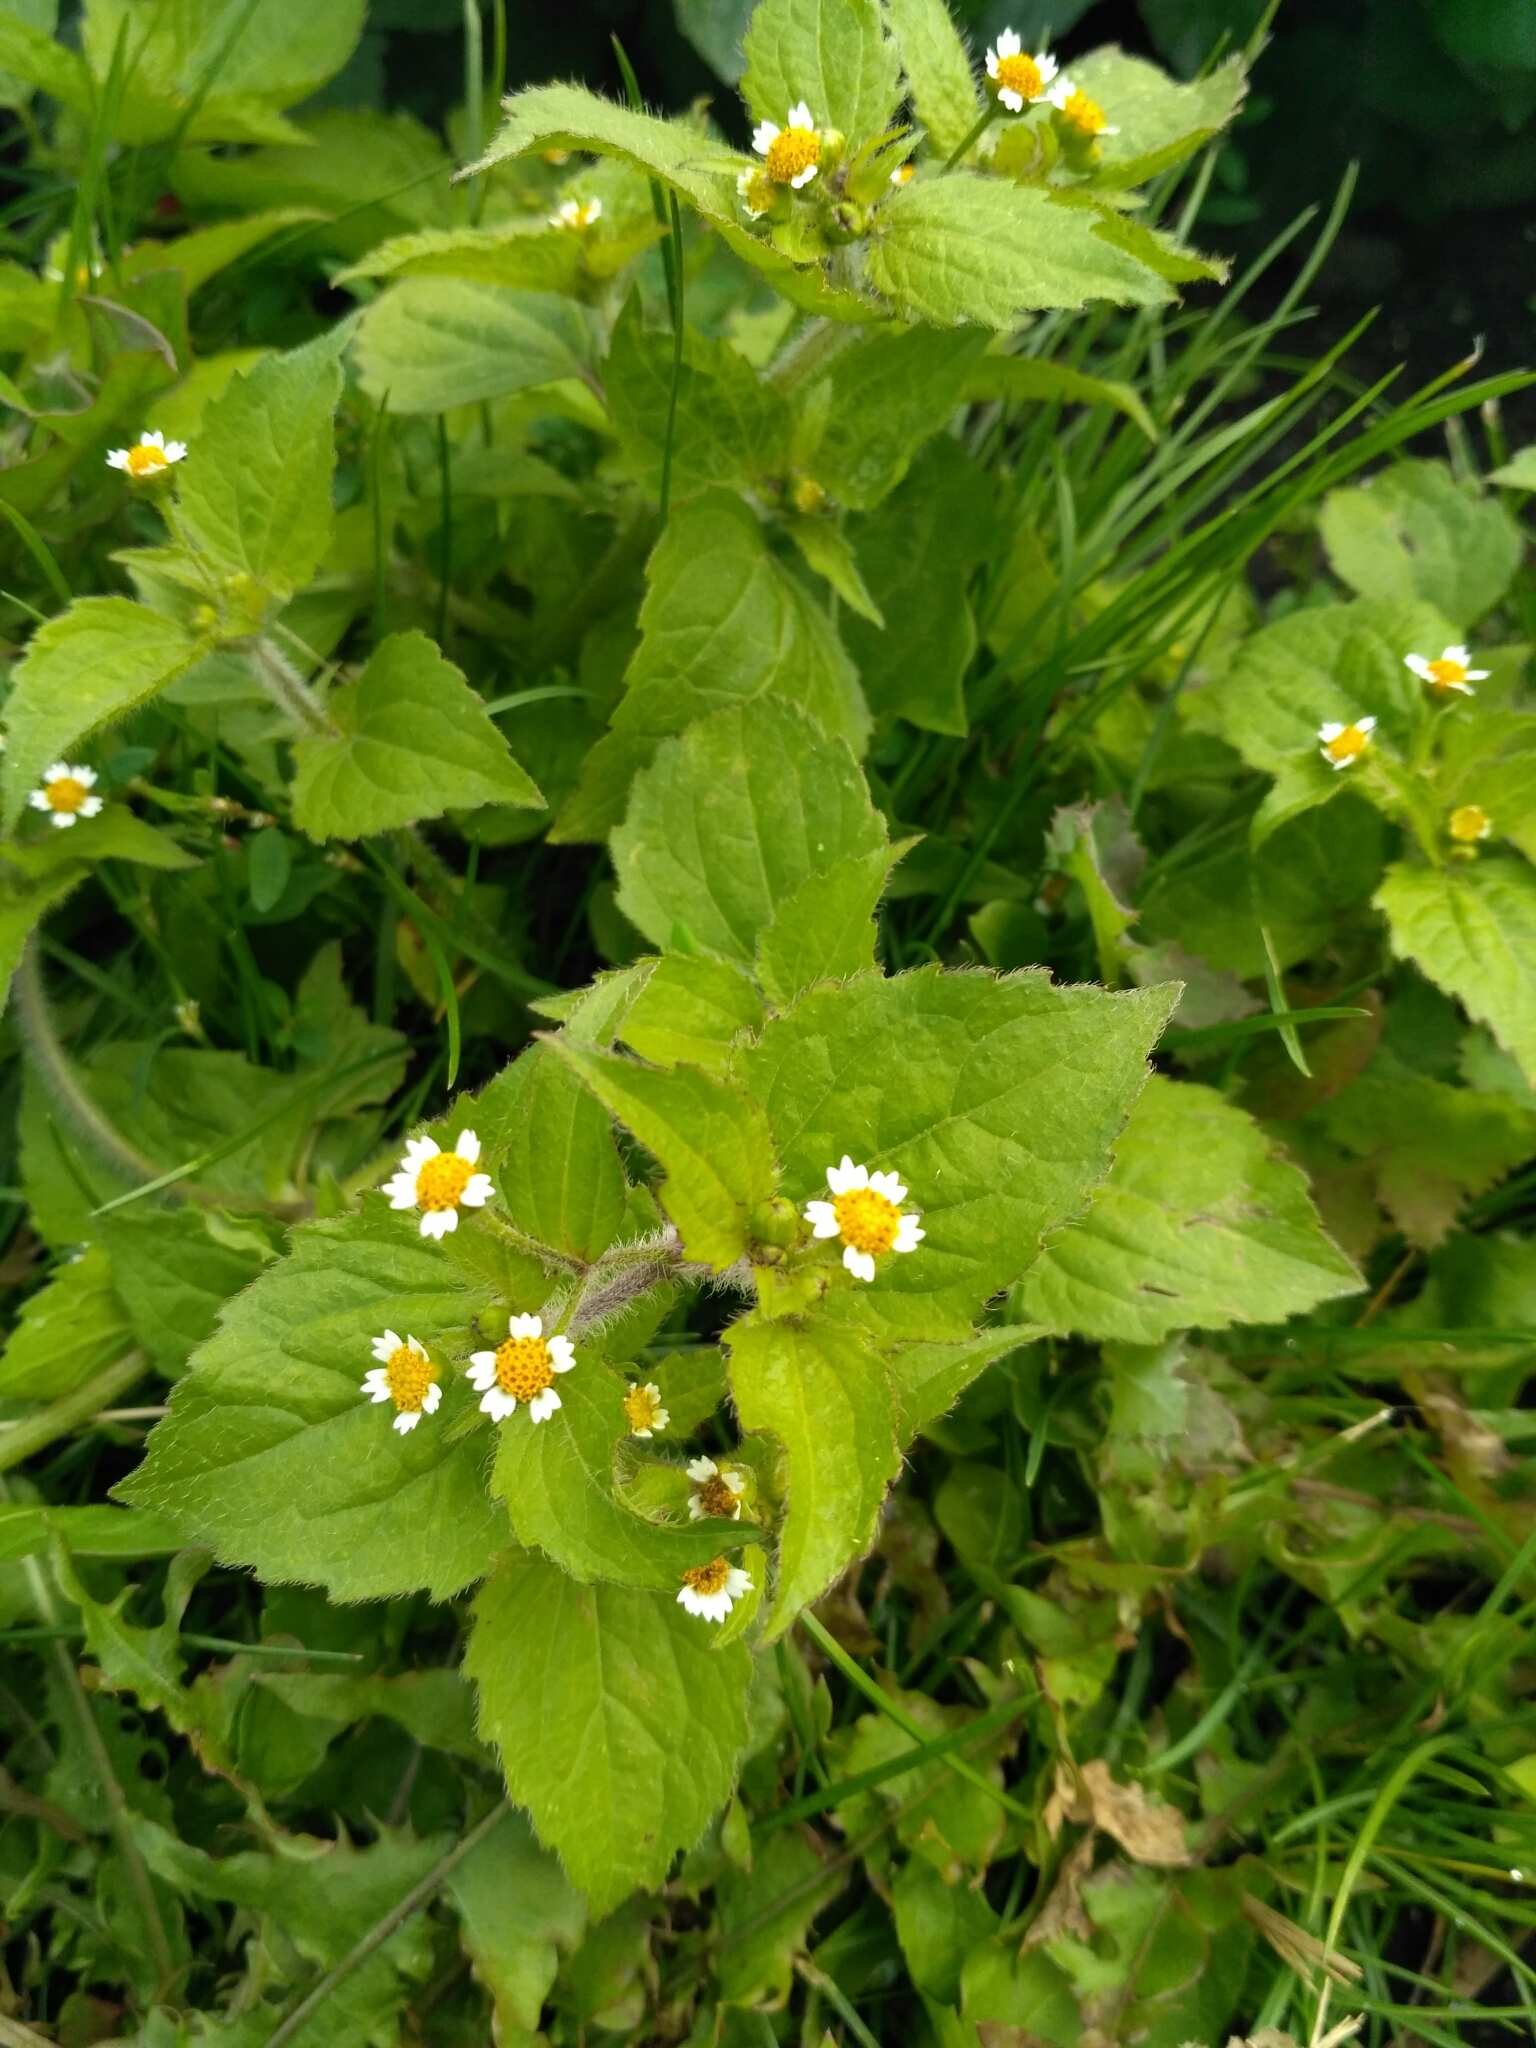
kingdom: Plantae
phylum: Tracheophyta
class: Magnoliopsida
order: Asterales
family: Asteraceae
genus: Galinsoga
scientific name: Galinsoga quadriradiata
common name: Shaggy soldier
